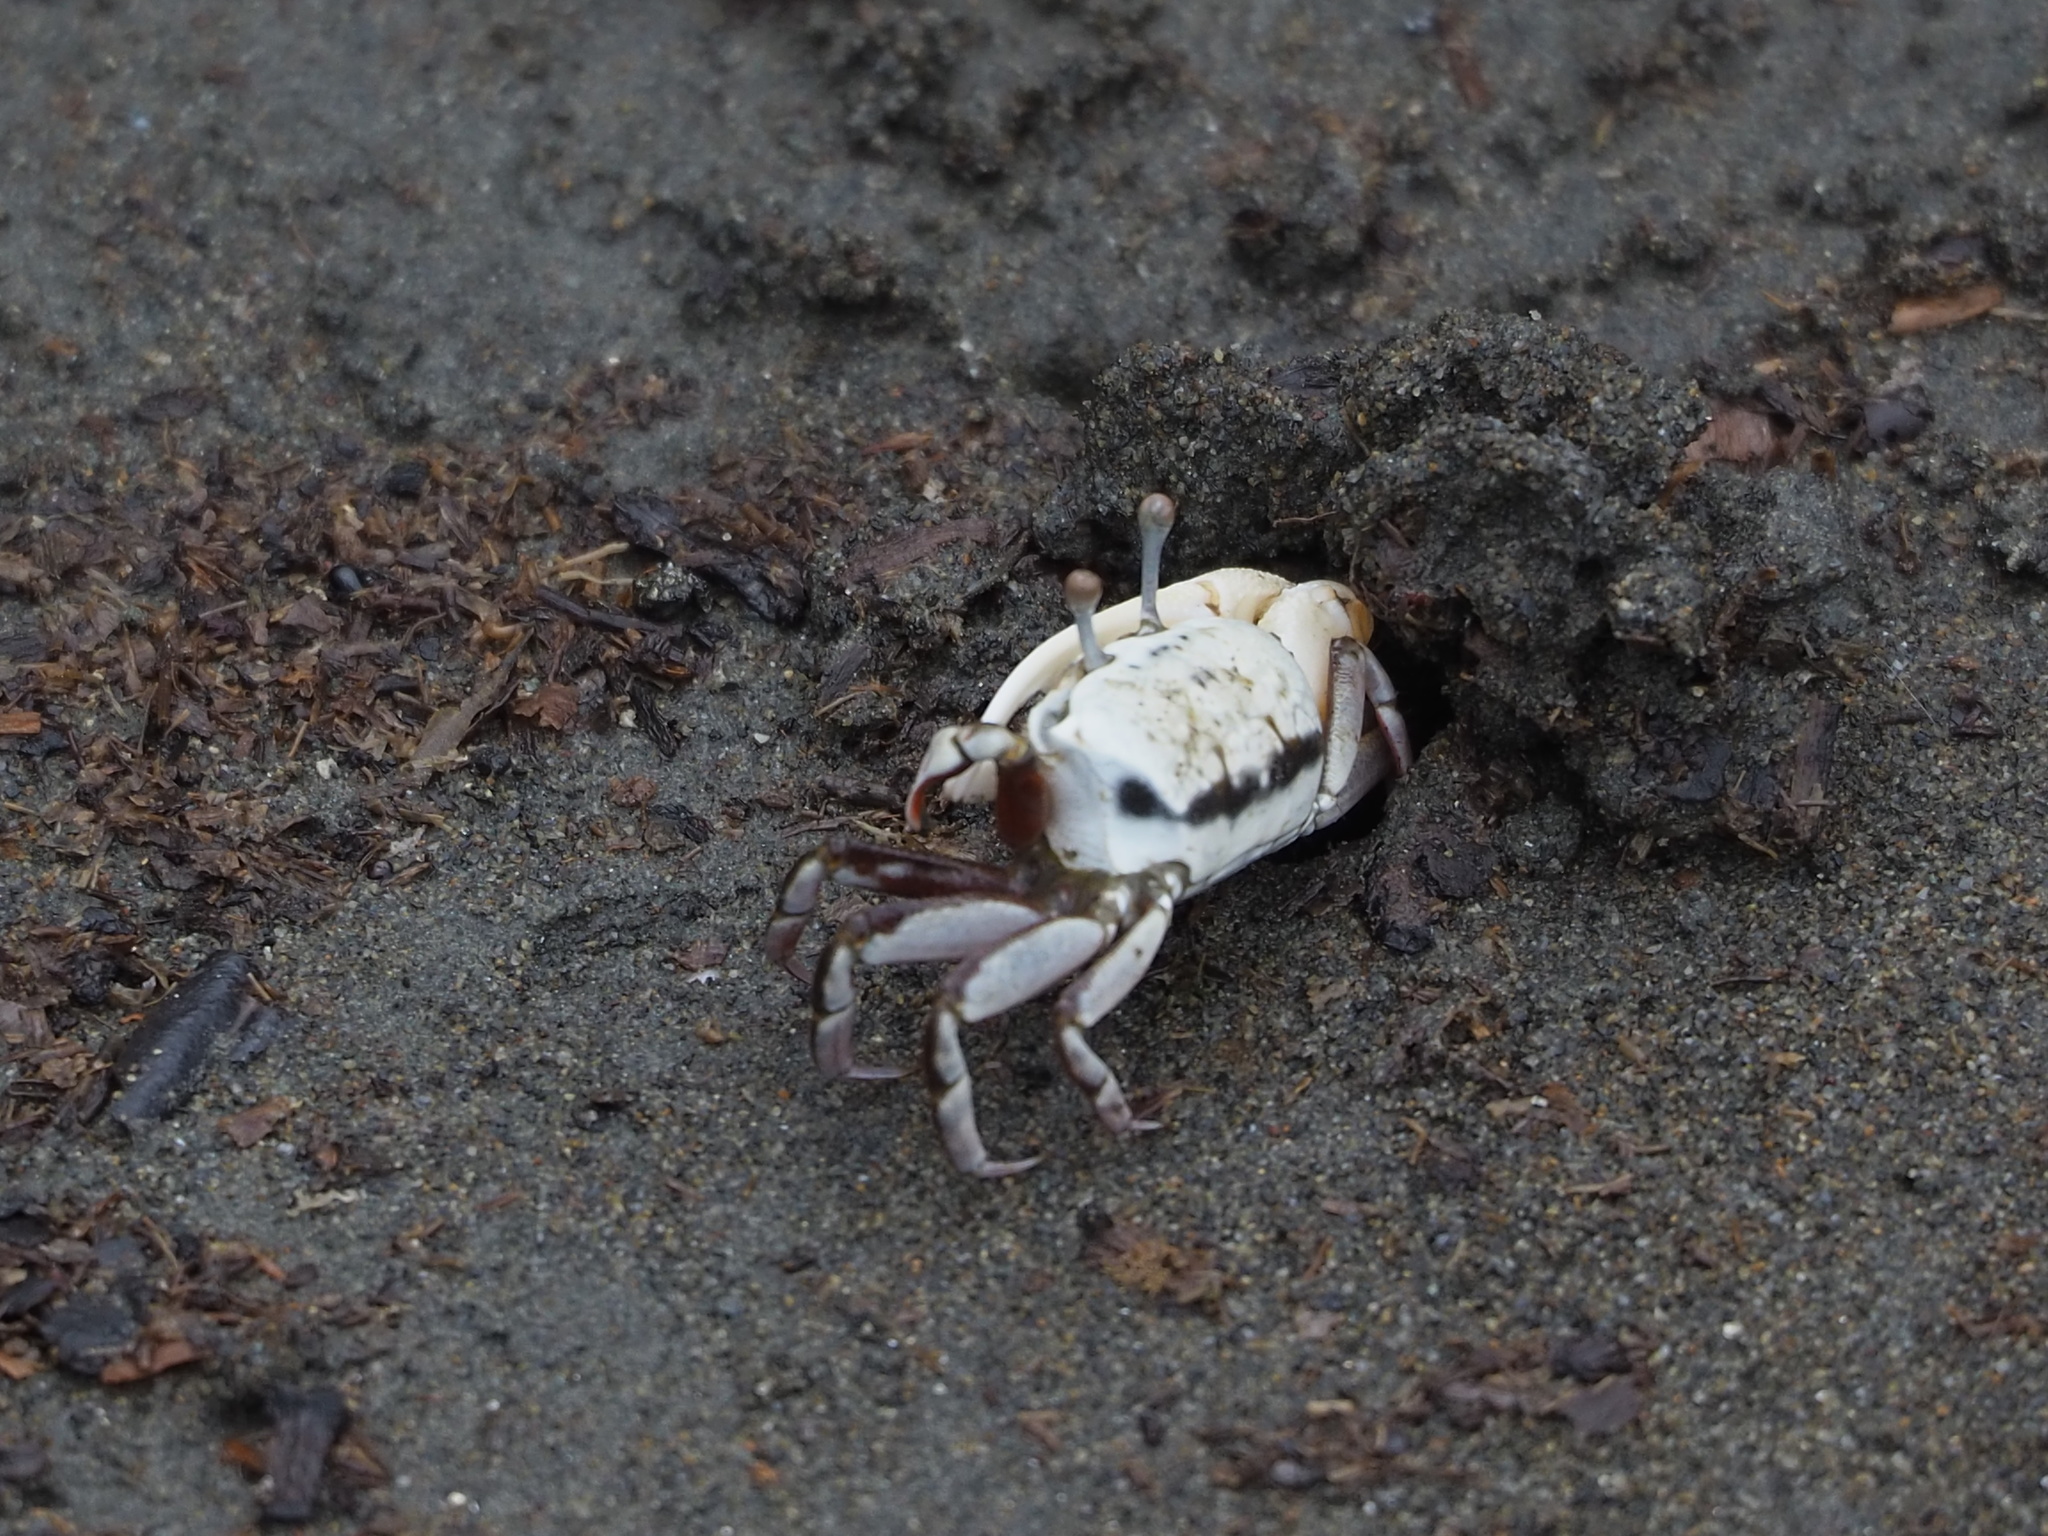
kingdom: Animalia
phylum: Arthropoda
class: Malacostraca
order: Decapoda
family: Ocypodidae
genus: Austruca
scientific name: Austruca lactea
